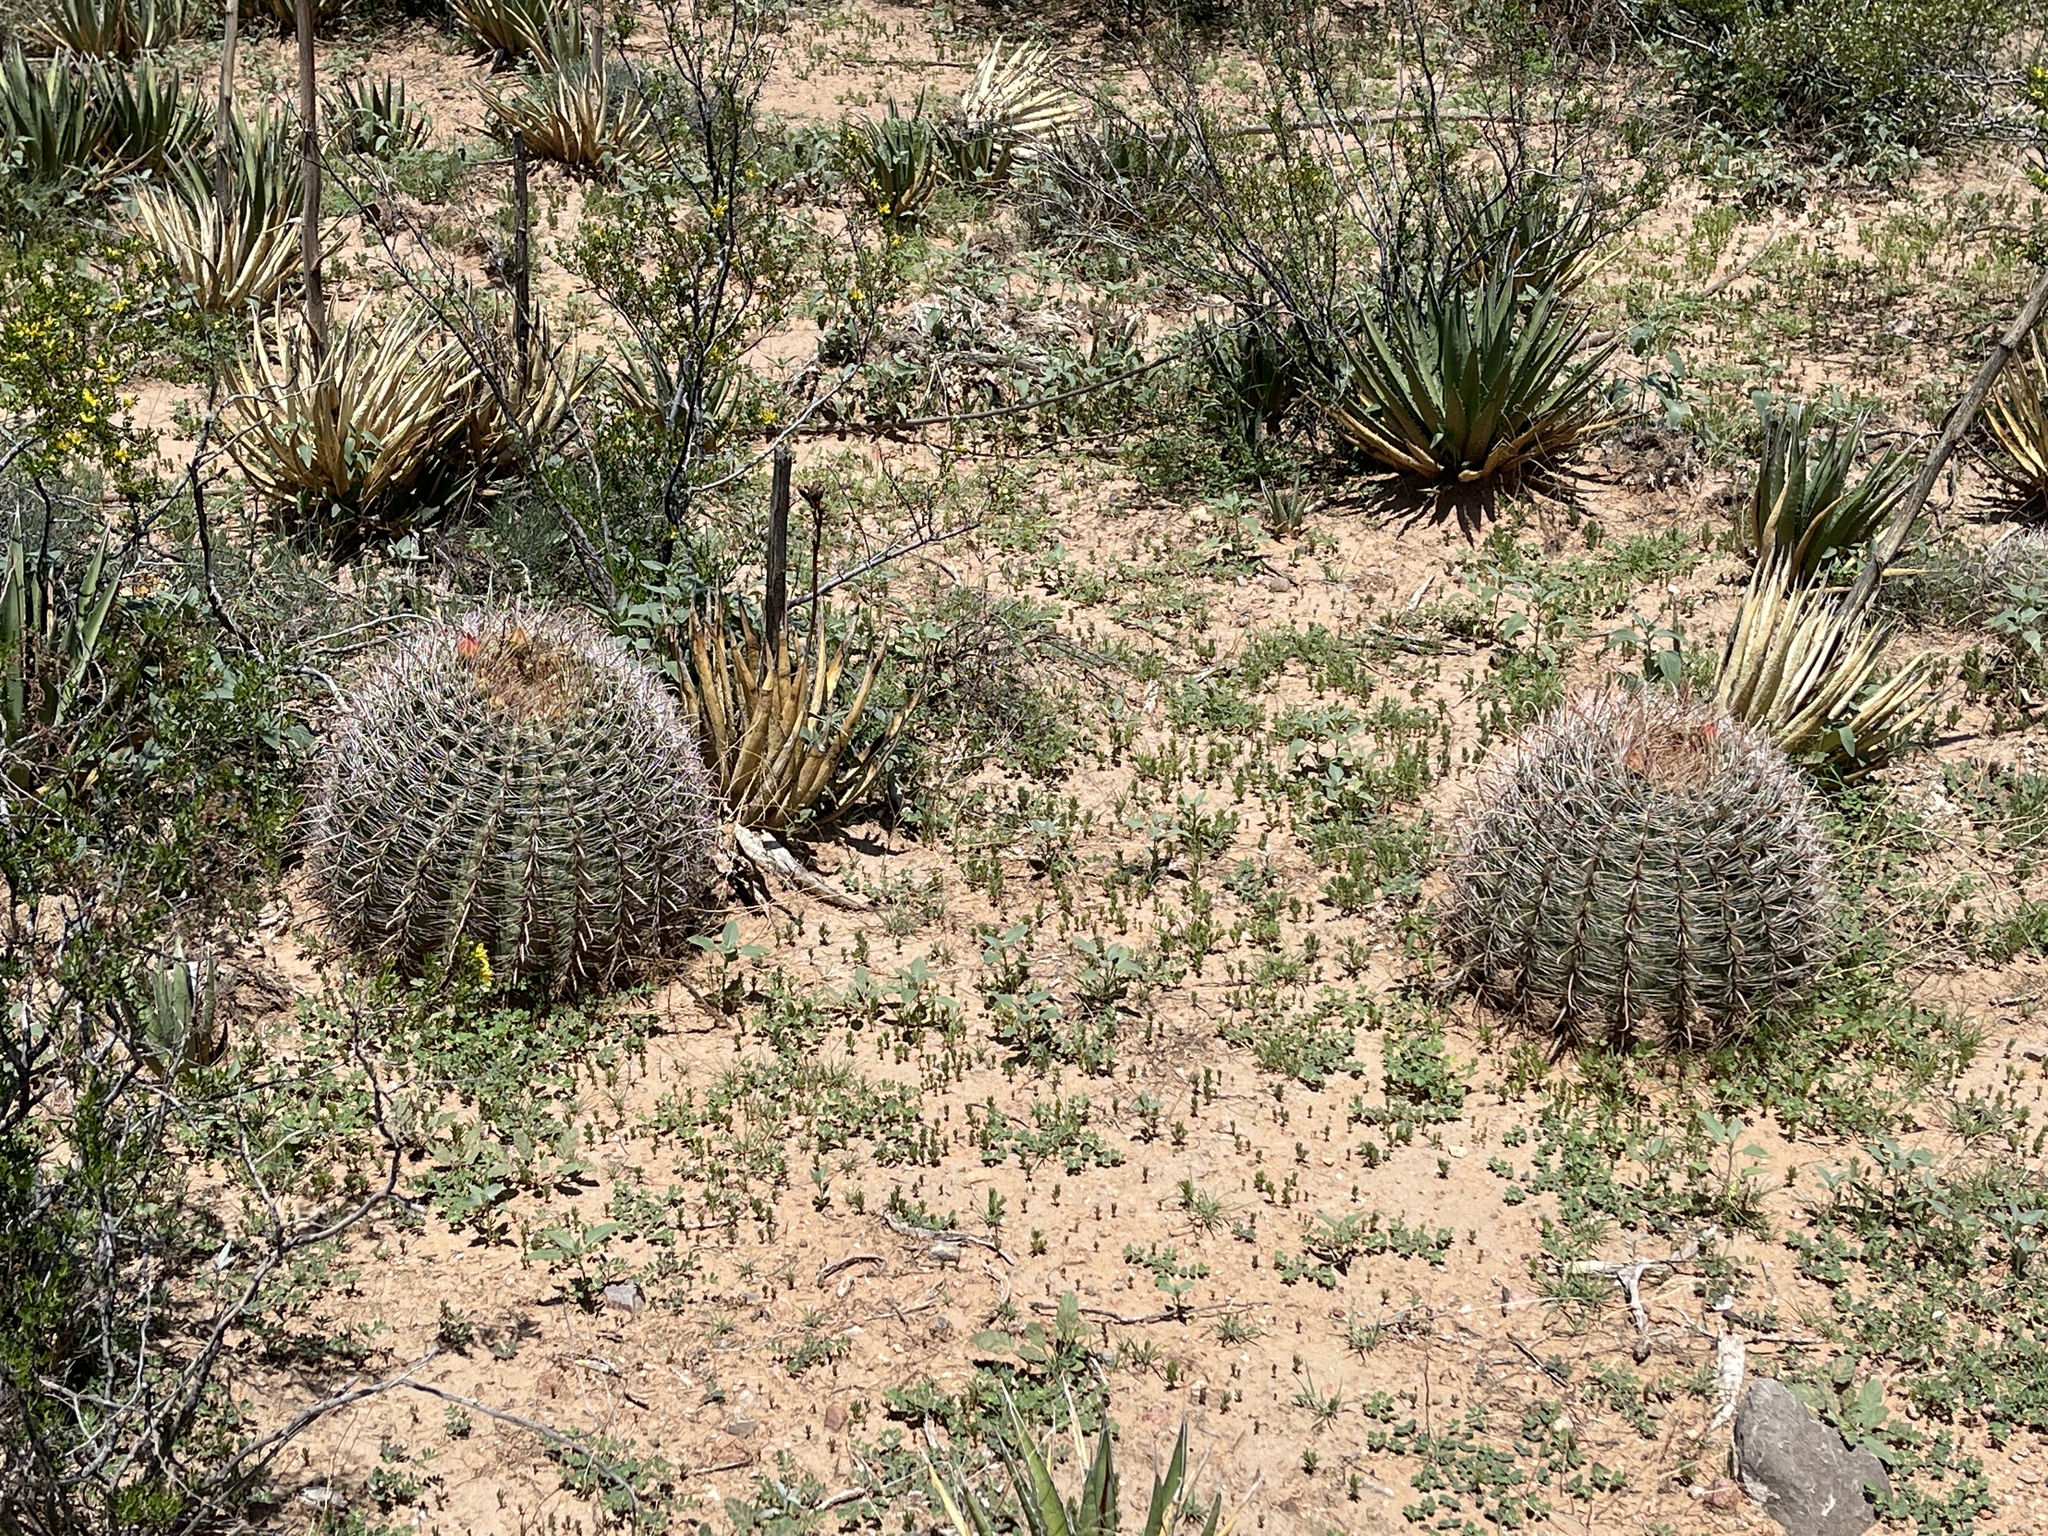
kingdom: Plantae
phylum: Tracheophyta
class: Magnoliopsida
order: Caryophyllales
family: Cactaceae
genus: Ferocactus
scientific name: Ferocactus wislizeni
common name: Candy barrel cactus
